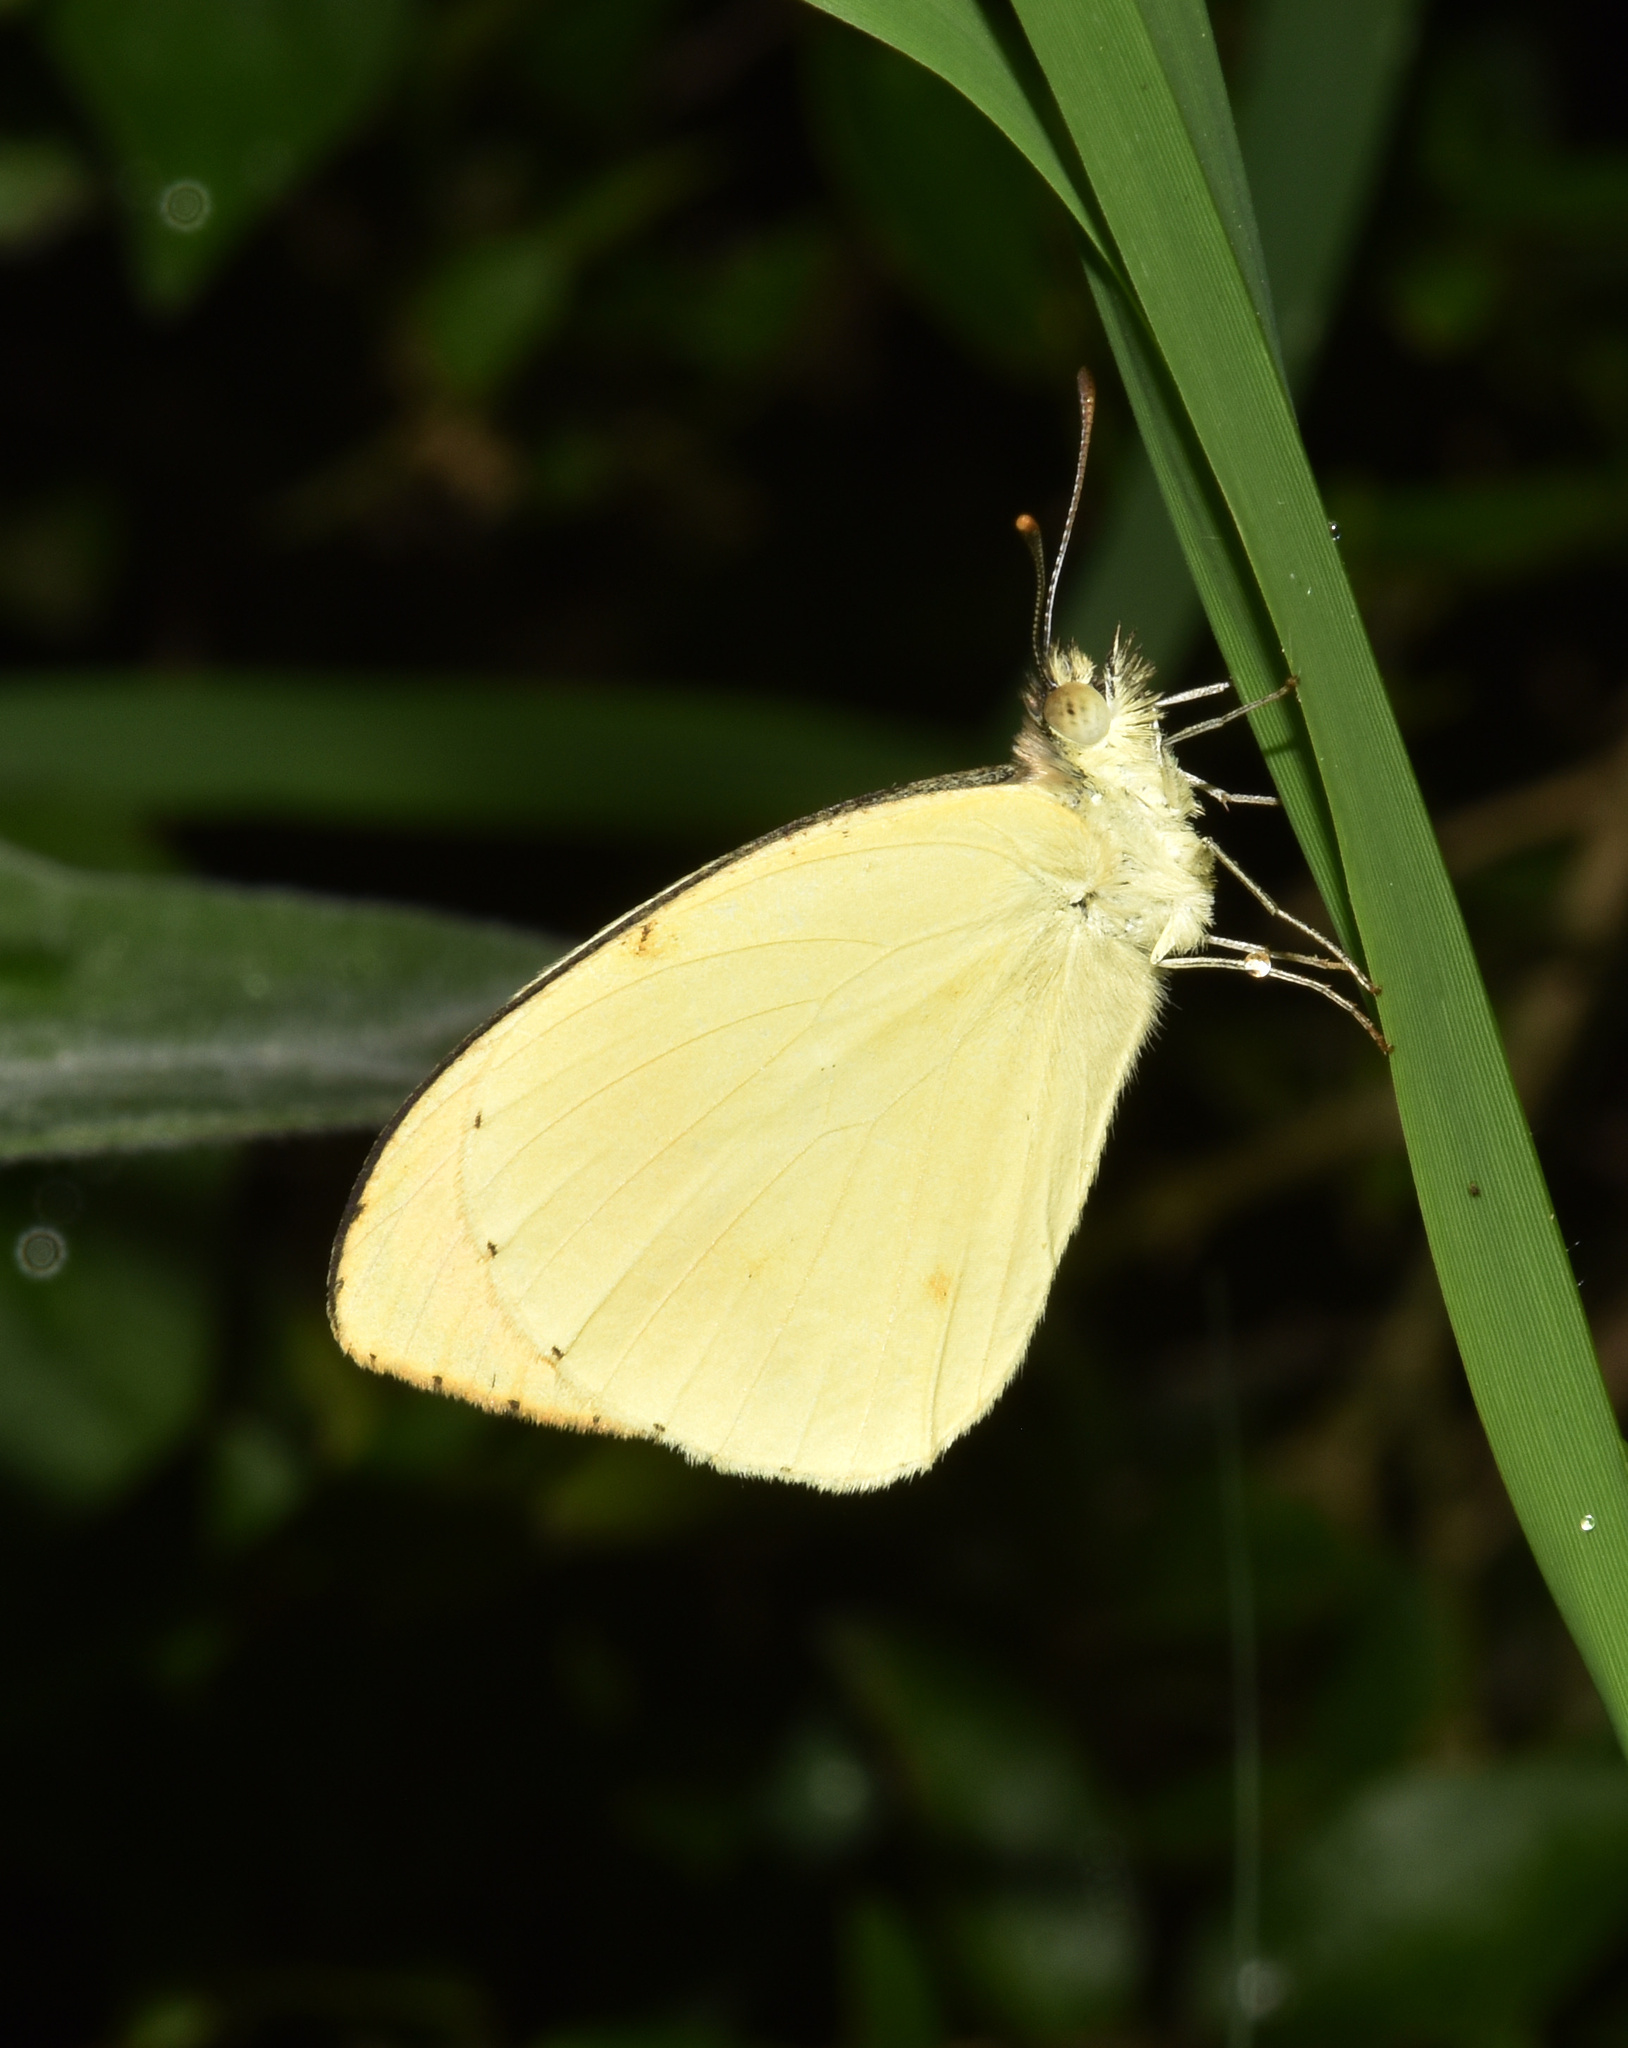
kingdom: Animalia
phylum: Arthropoda
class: Insecta
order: Lepidoptera
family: Pieridae
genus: Colotis
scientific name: Colotis auxo
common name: Sulphur orange tip
